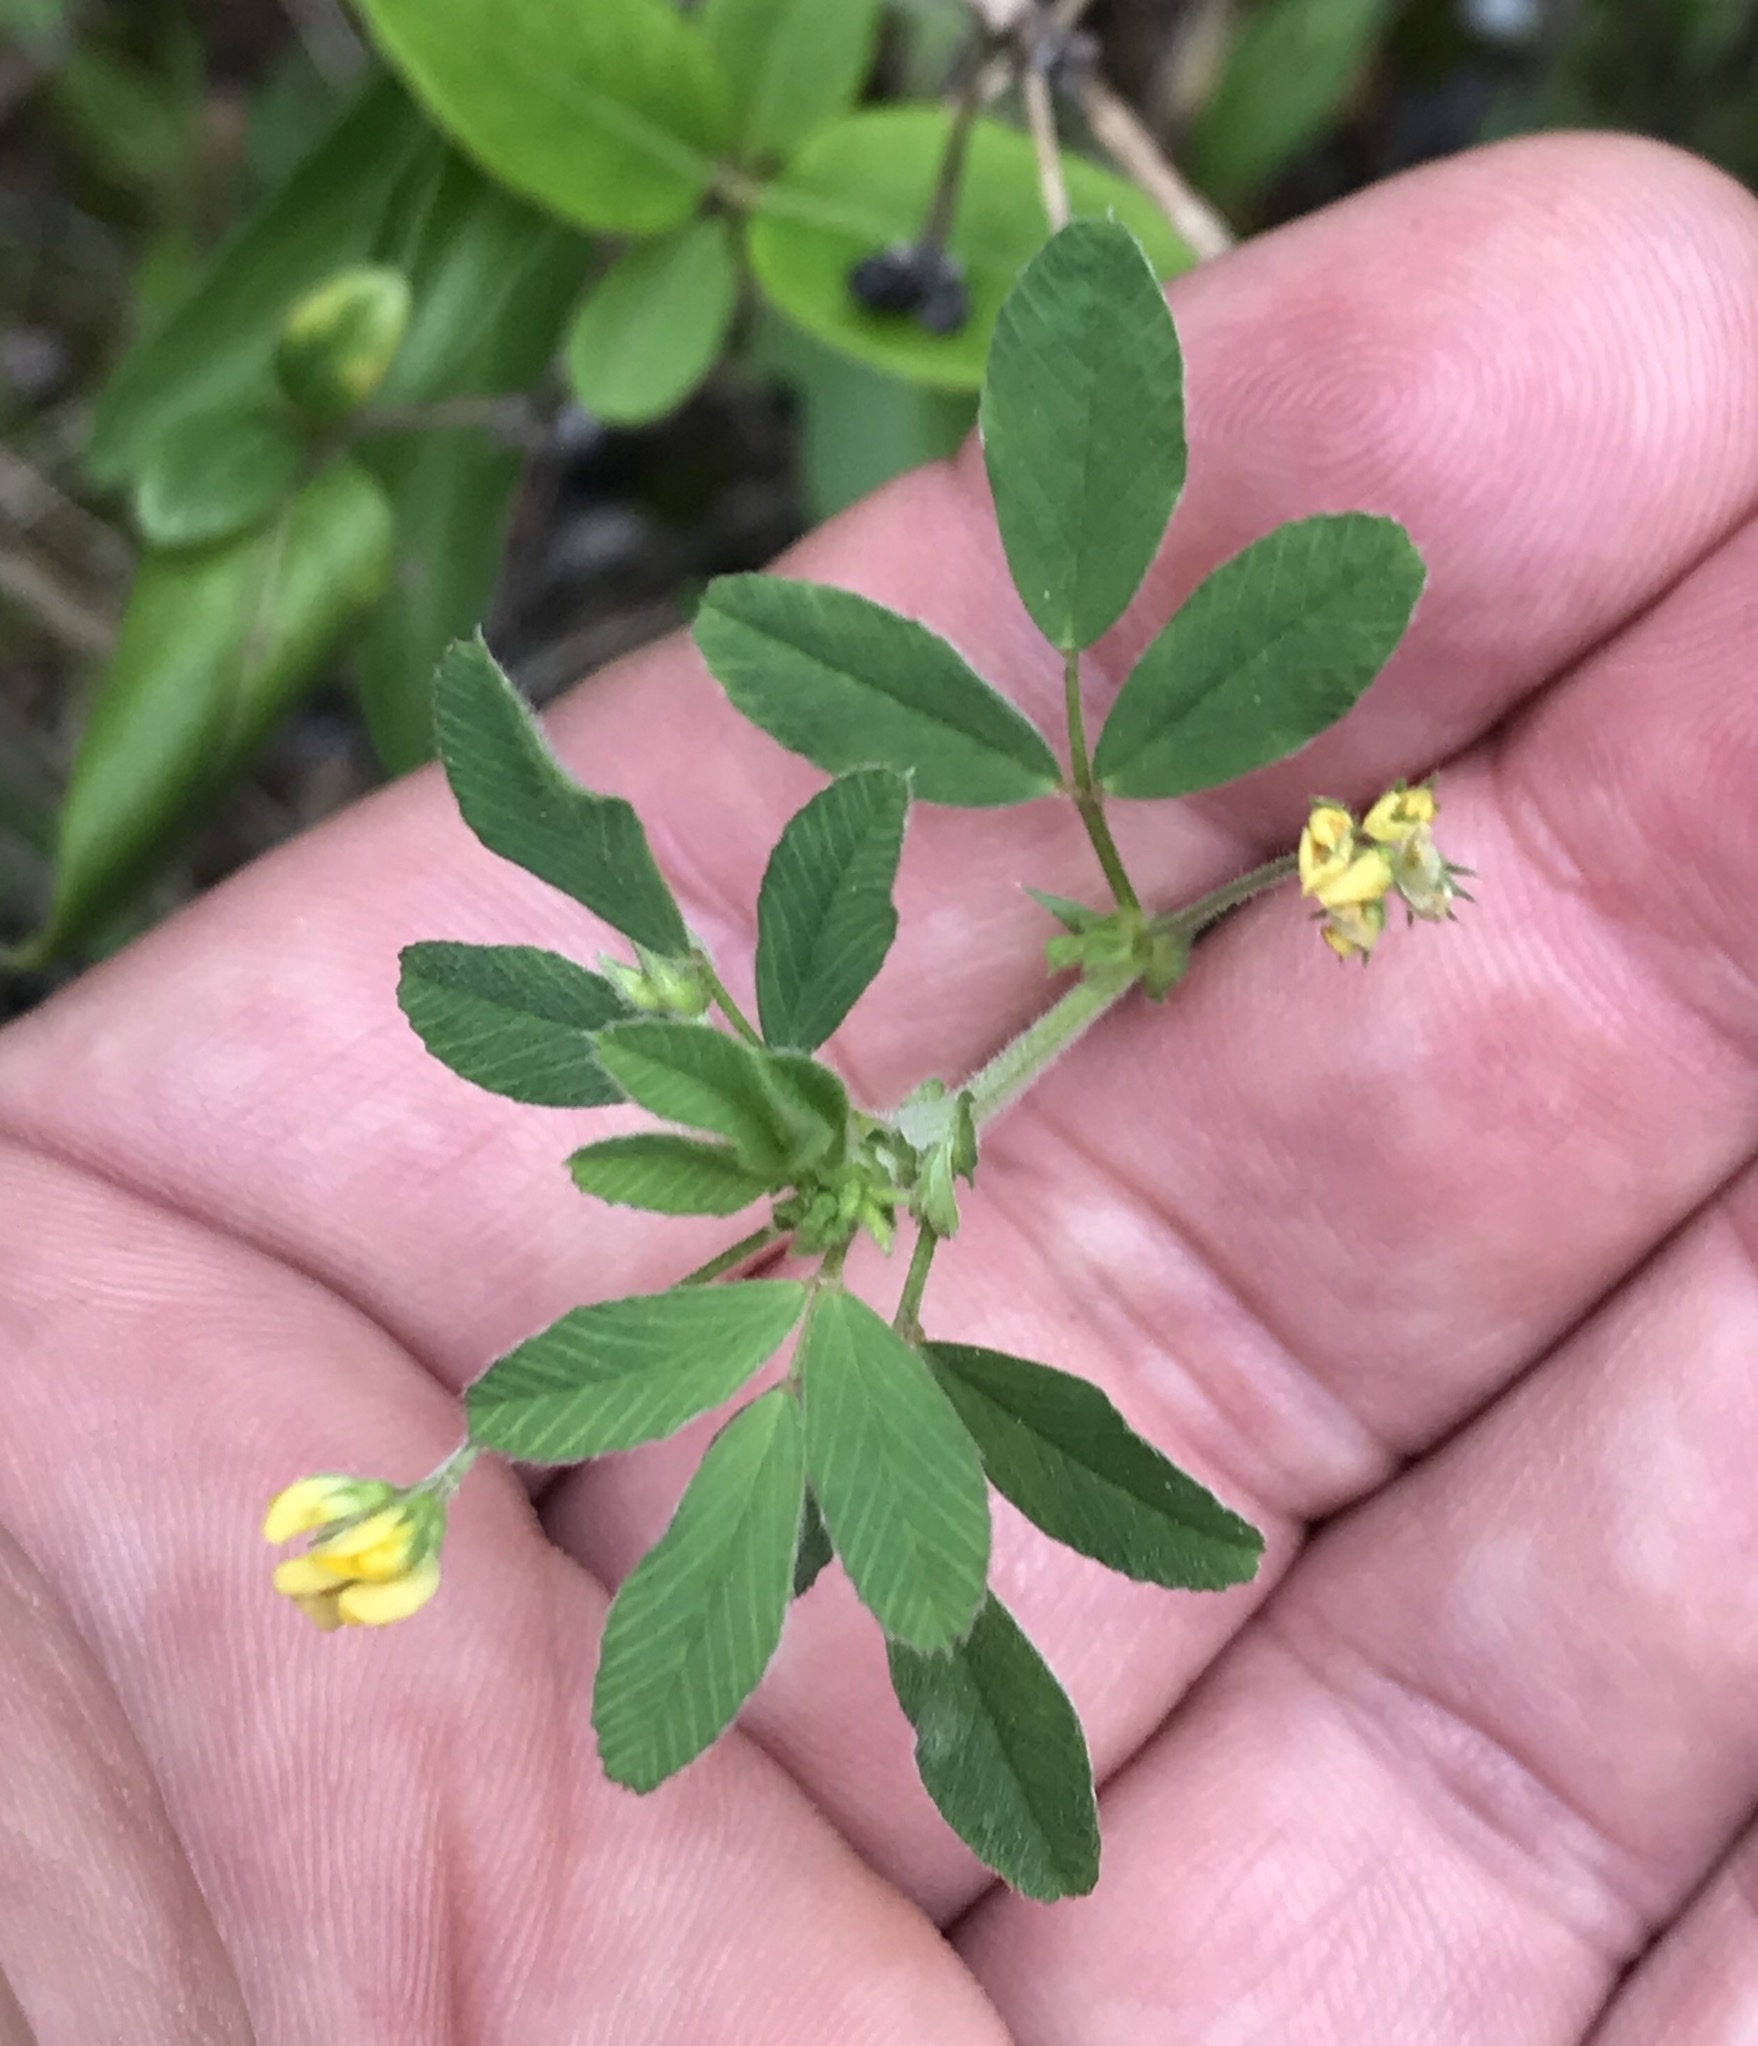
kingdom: Plantae
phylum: Tracheophyta
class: Magnoliopsida
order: Fabales
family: Fabaceae
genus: Medicago
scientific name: Medicago minima
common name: Little bur-clover
